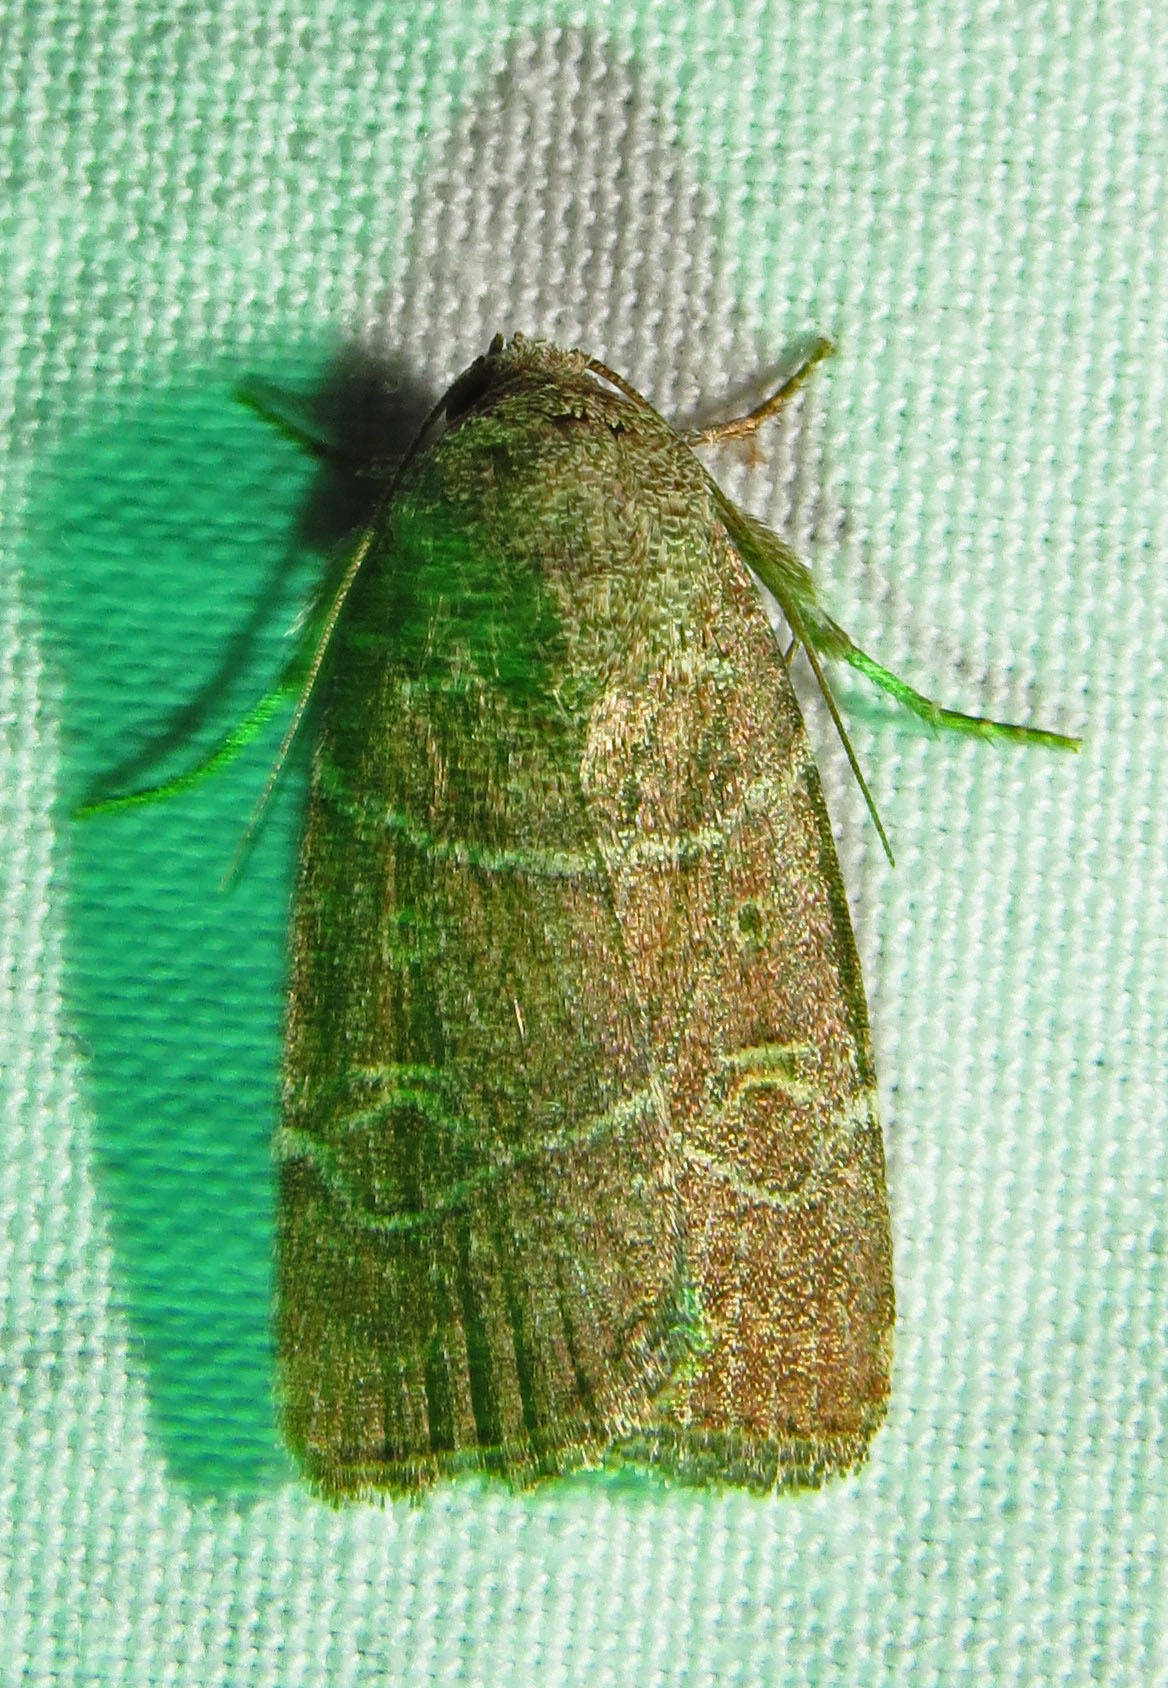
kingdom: Animalia
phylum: Arthropoda
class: Insecta
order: Lepidoptera
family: Noctuidae
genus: Elaphria
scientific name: Elaphria grata
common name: Grateful midget moth
